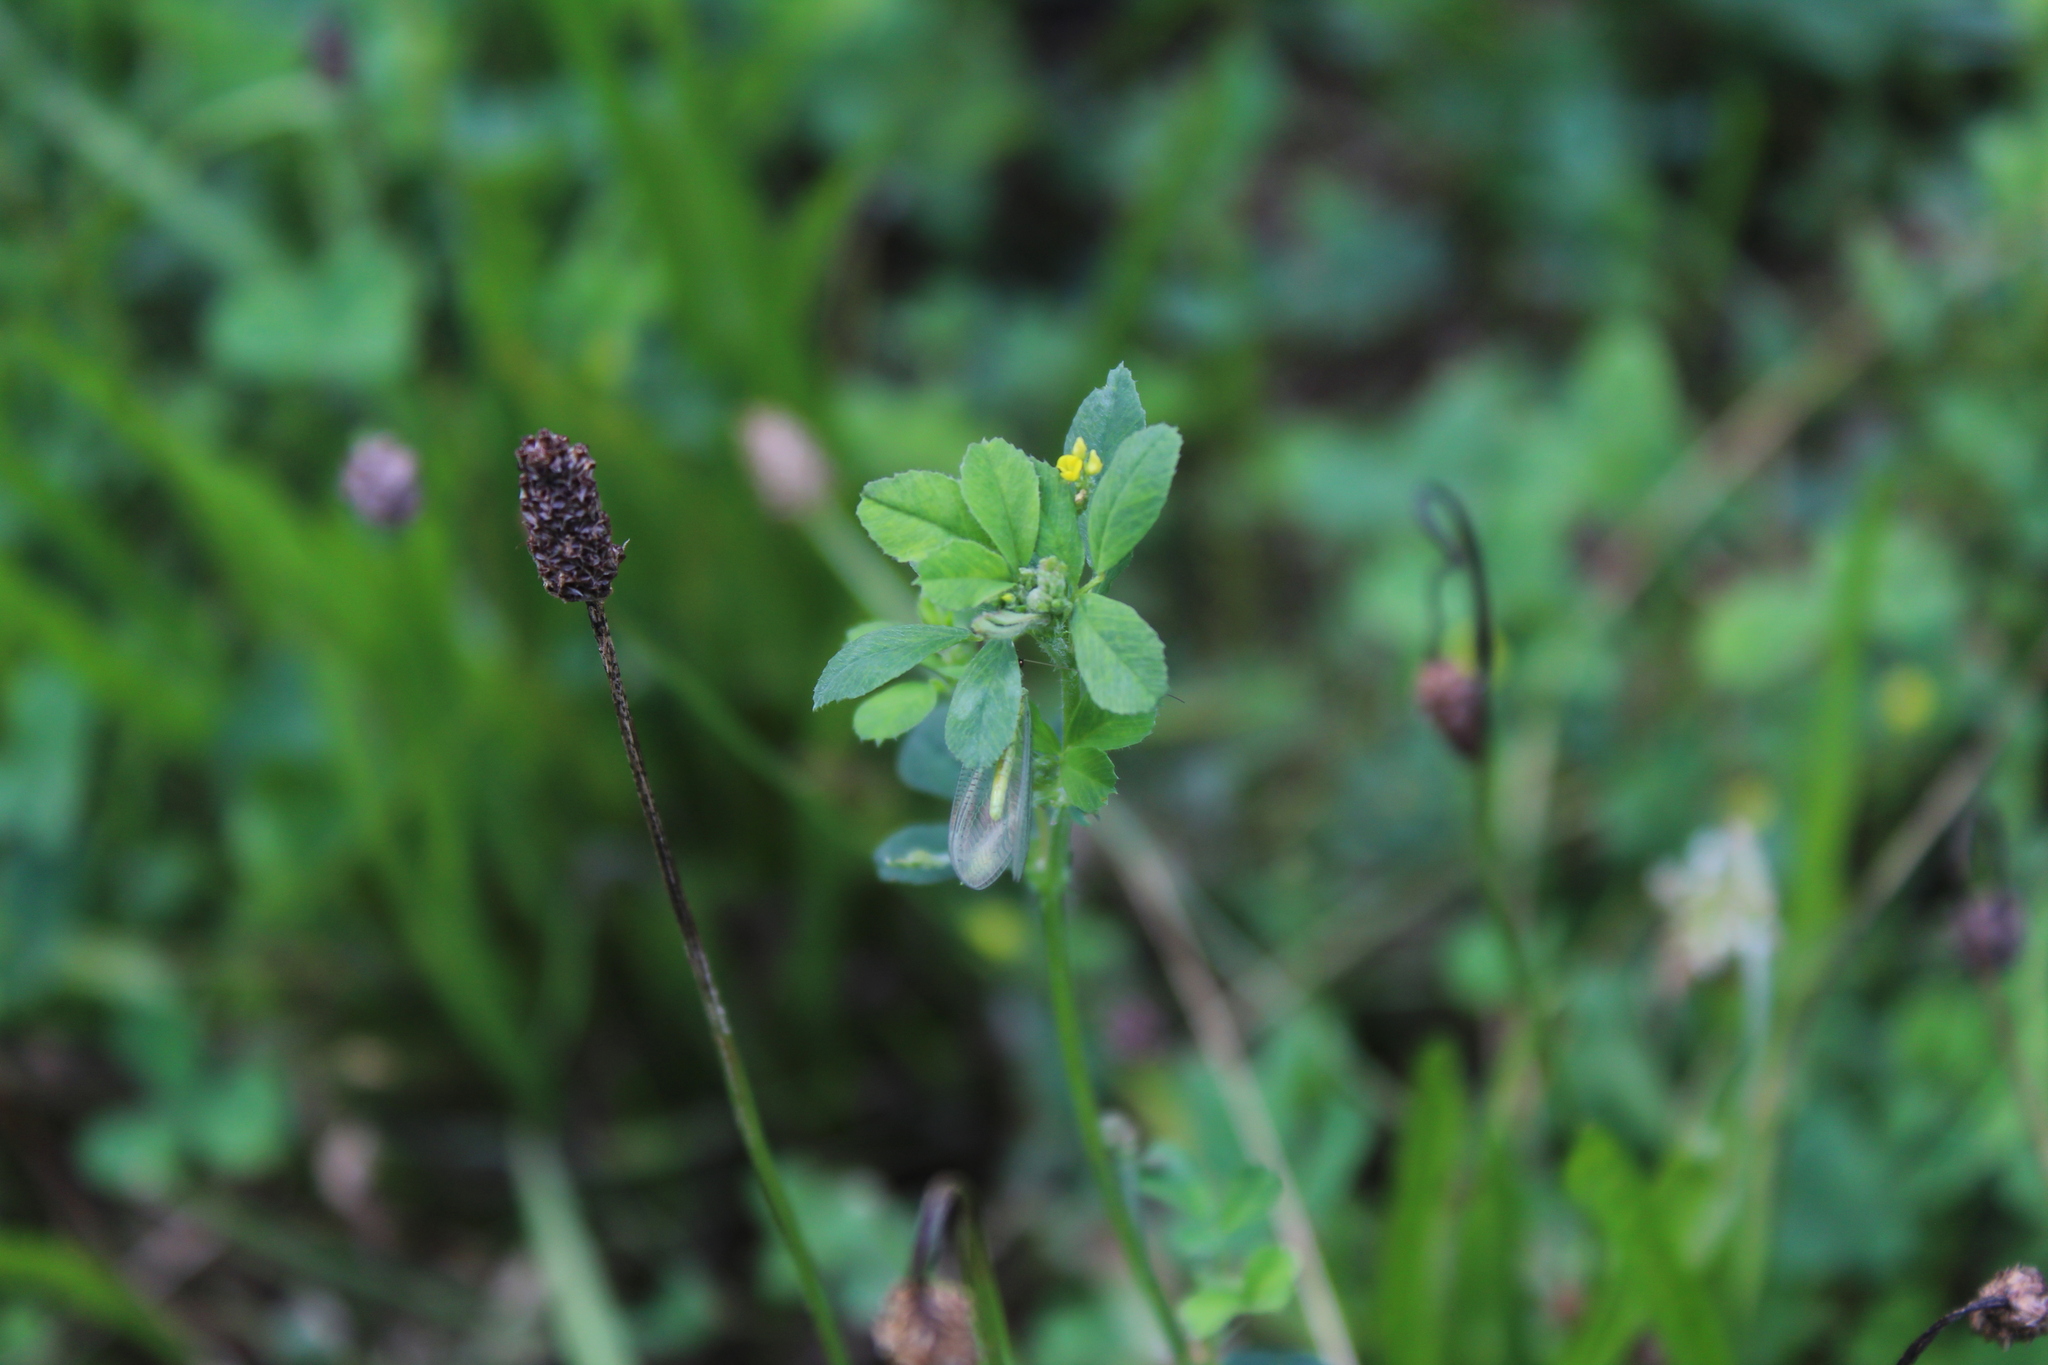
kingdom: Plantae
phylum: Tracheophyta
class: Magnoliopsida
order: Fabales
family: Fabaceae
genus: Medicago
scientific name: Medicago lupulina
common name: Black medick
